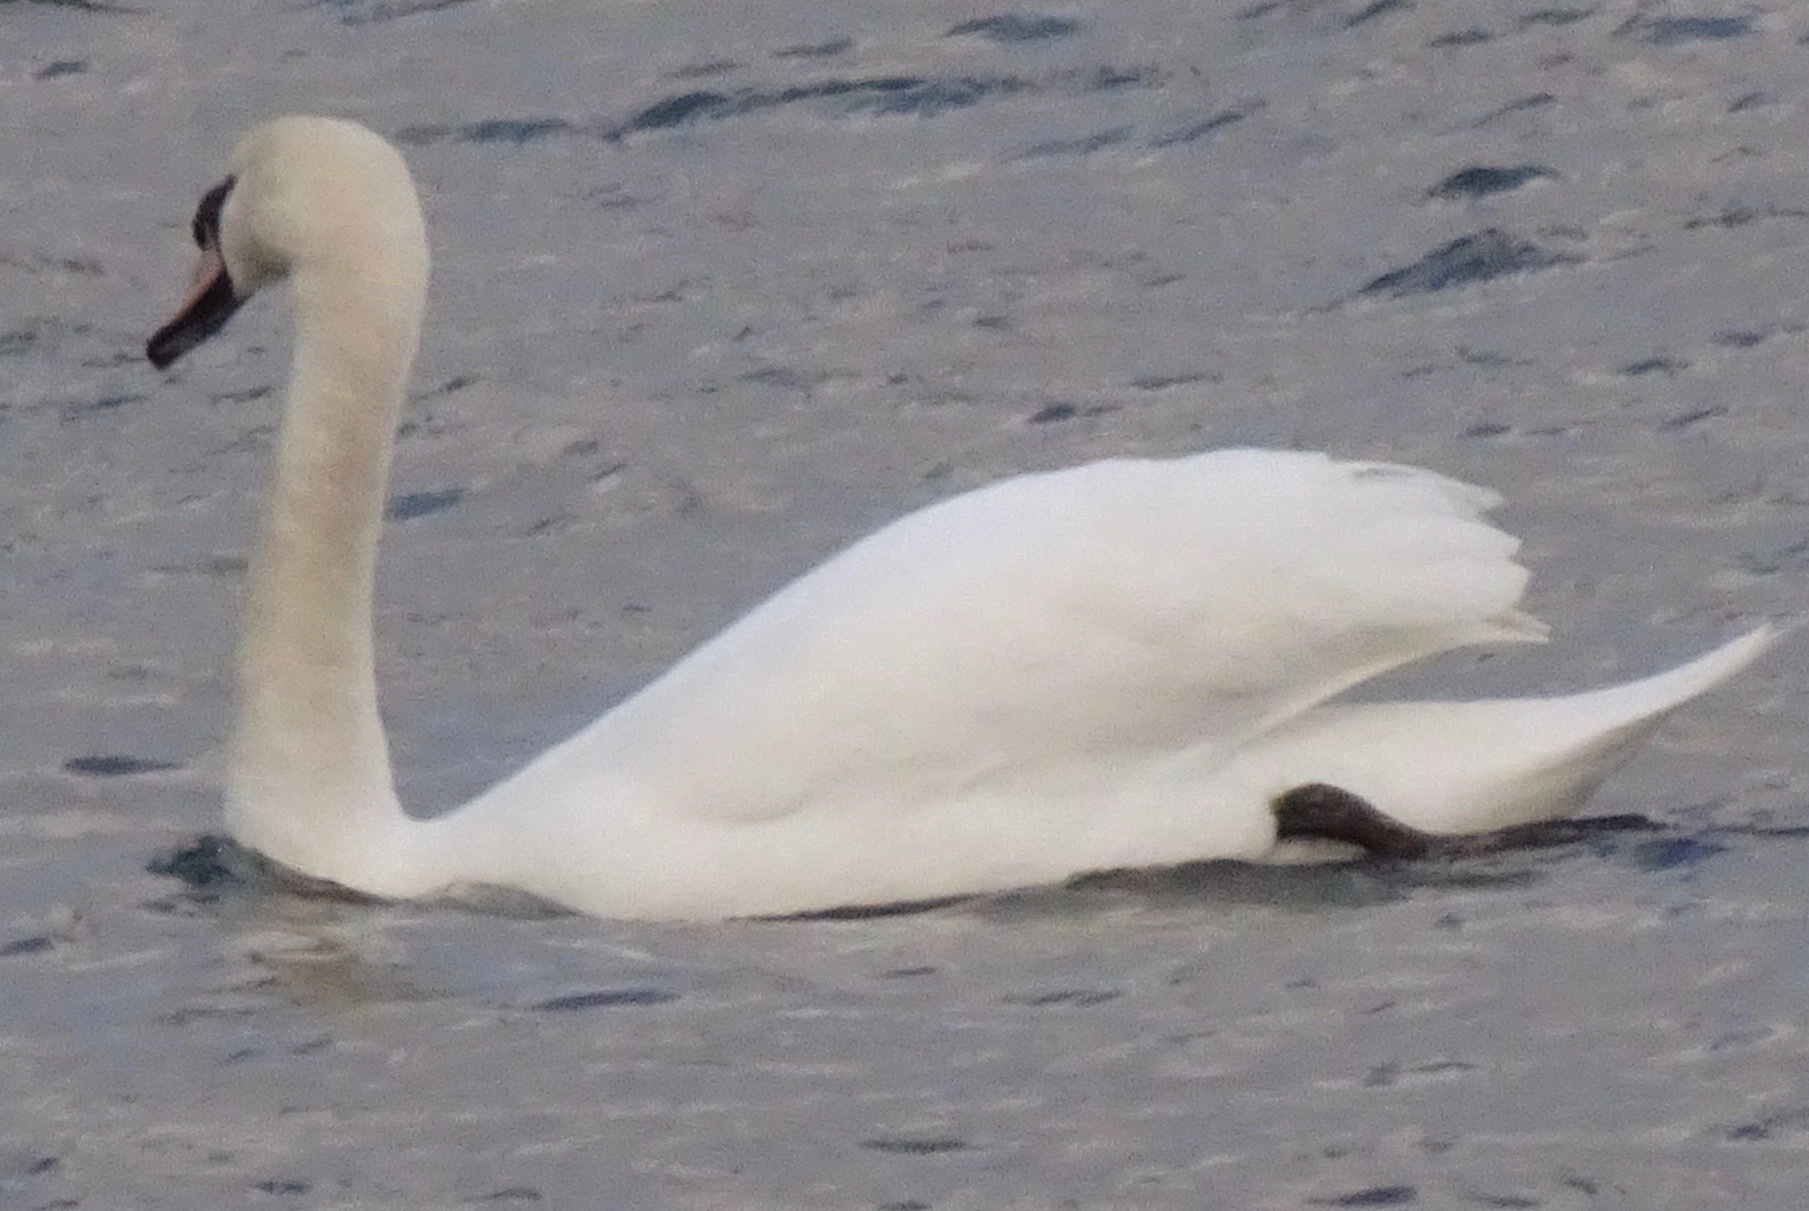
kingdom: Animalia
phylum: Chordata
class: Aves
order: Anseriformes
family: Anatidae
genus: Cygnus
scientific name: Cygnus olor
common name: Mute swan
